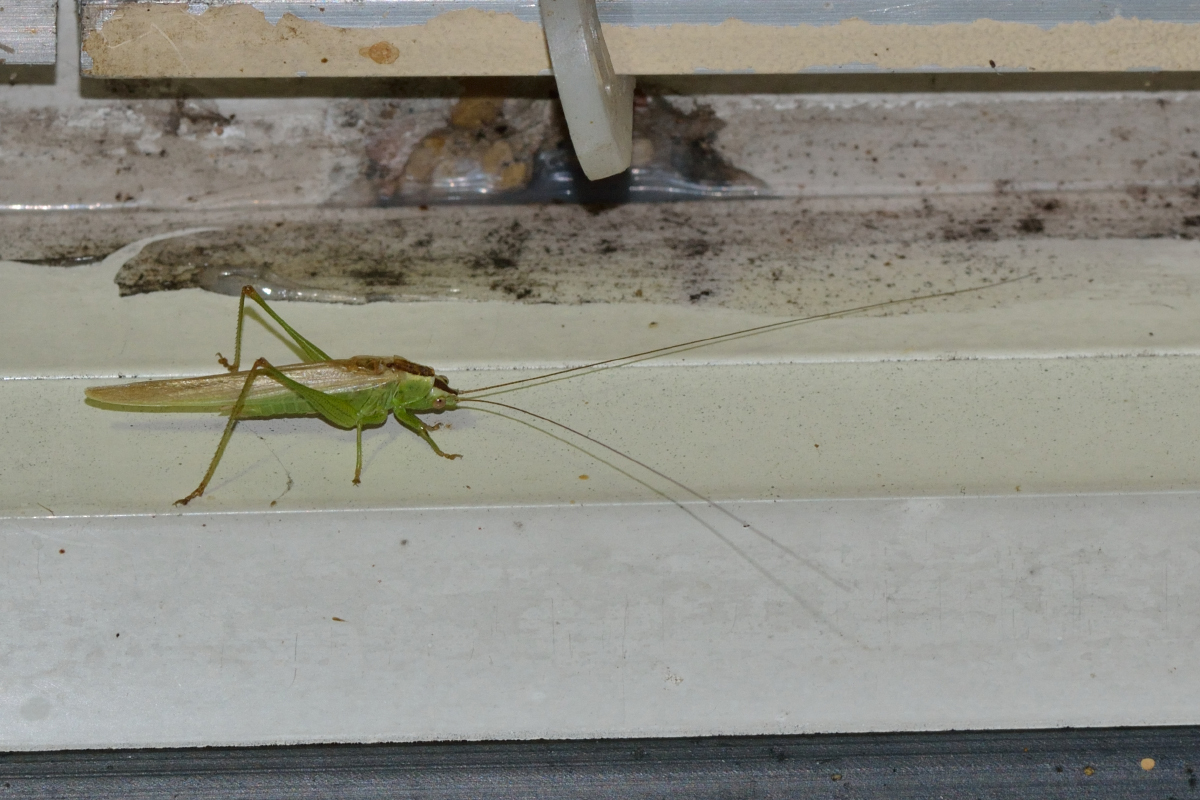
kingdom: Animalia
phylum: Arthropoda
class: Insecta
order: Orthoptera
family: Tettigoniidae
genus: Conocephalus
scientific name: Conocephalus fuscus
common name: Long-winged conehead
